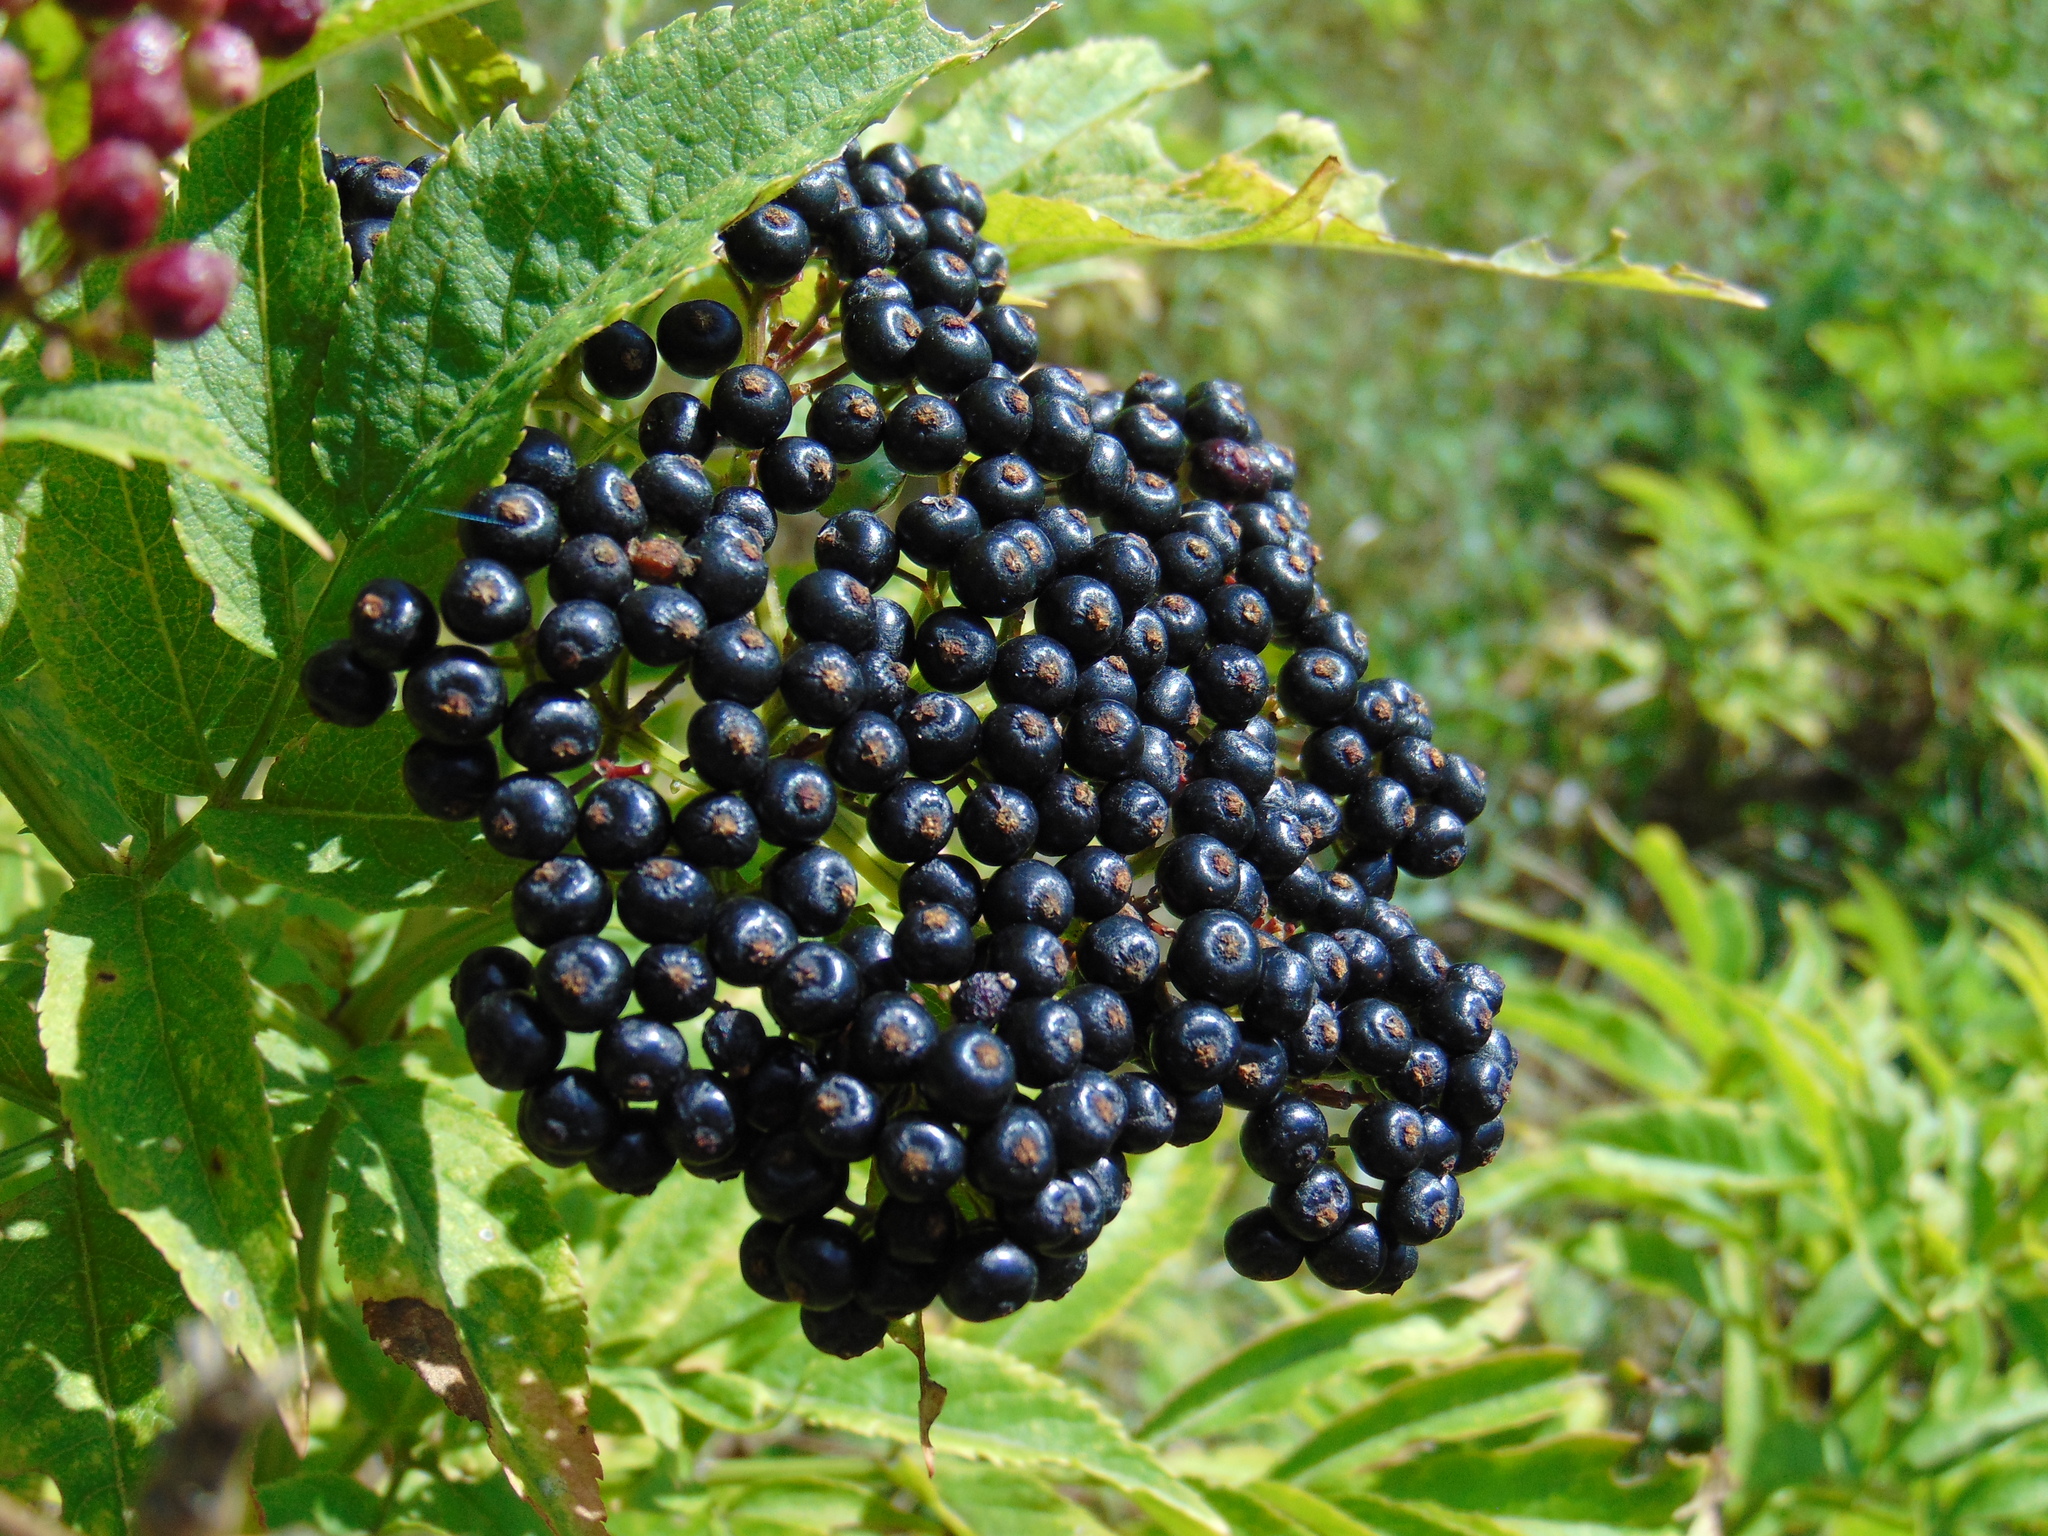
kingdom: Plantae
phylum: Tracheophyta
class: Magnoliopsida
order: Dipsacales
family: Viburnaceae
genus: Sambucus
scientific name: Sambucus ebulus
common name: Dwarf elder
